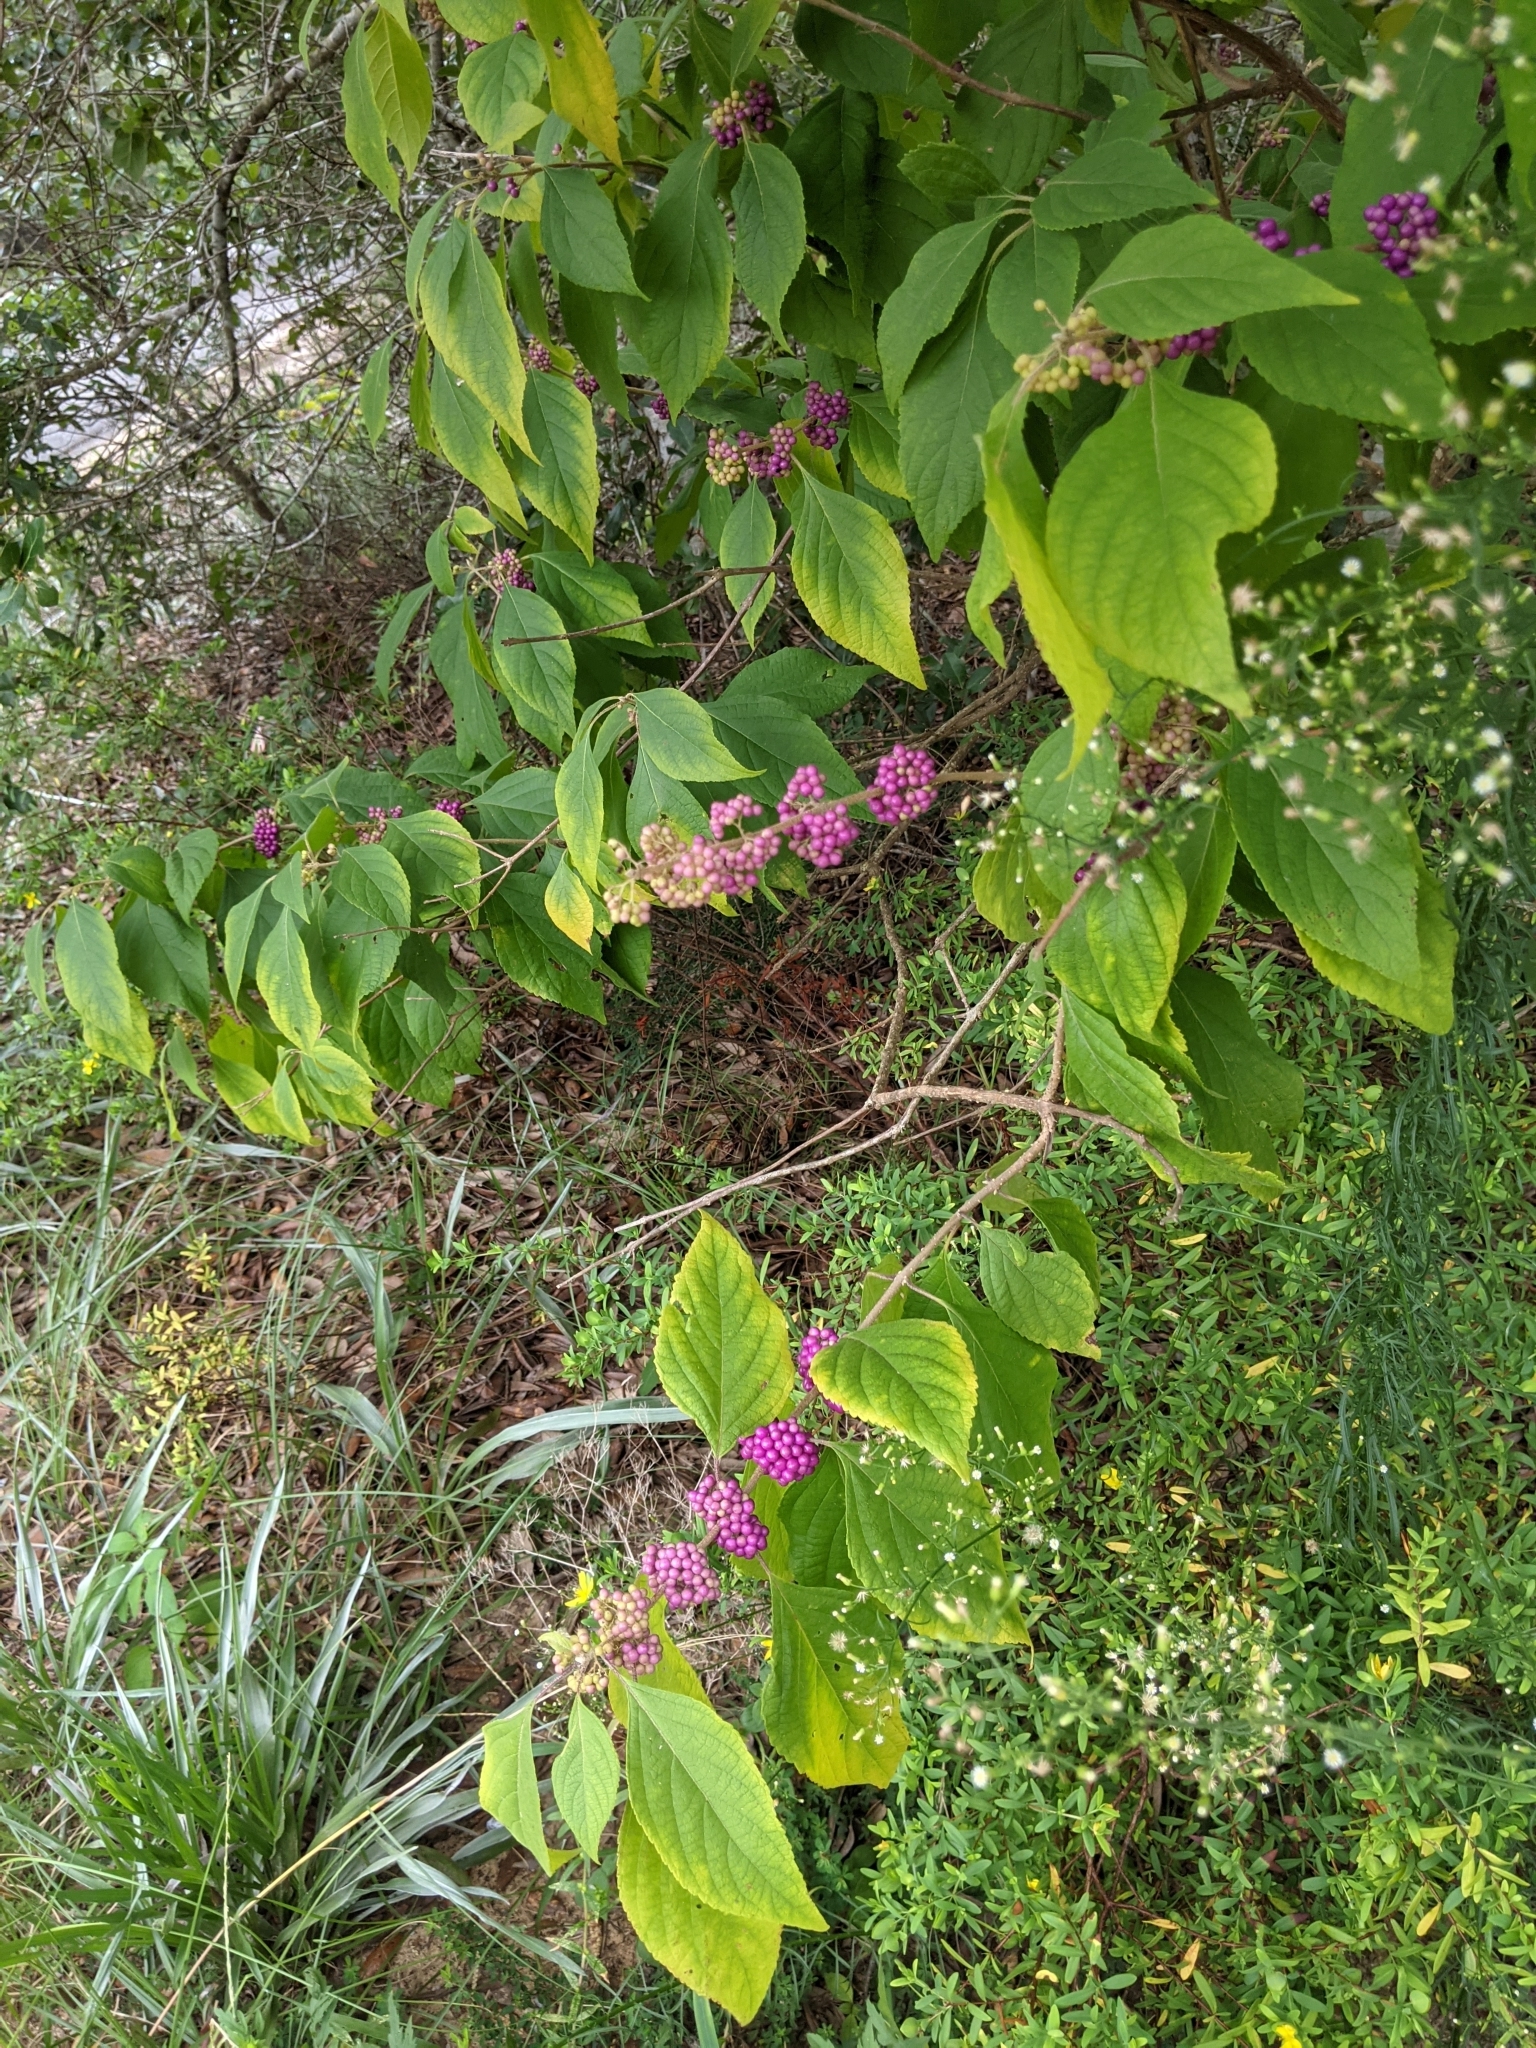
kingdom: Plantae
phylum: Tracheophyta
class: Magnoliopsida
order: Lamiales
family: Lamiaceae
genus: Callicarpa
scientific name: Callicarpa americana
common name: American beautyberry
